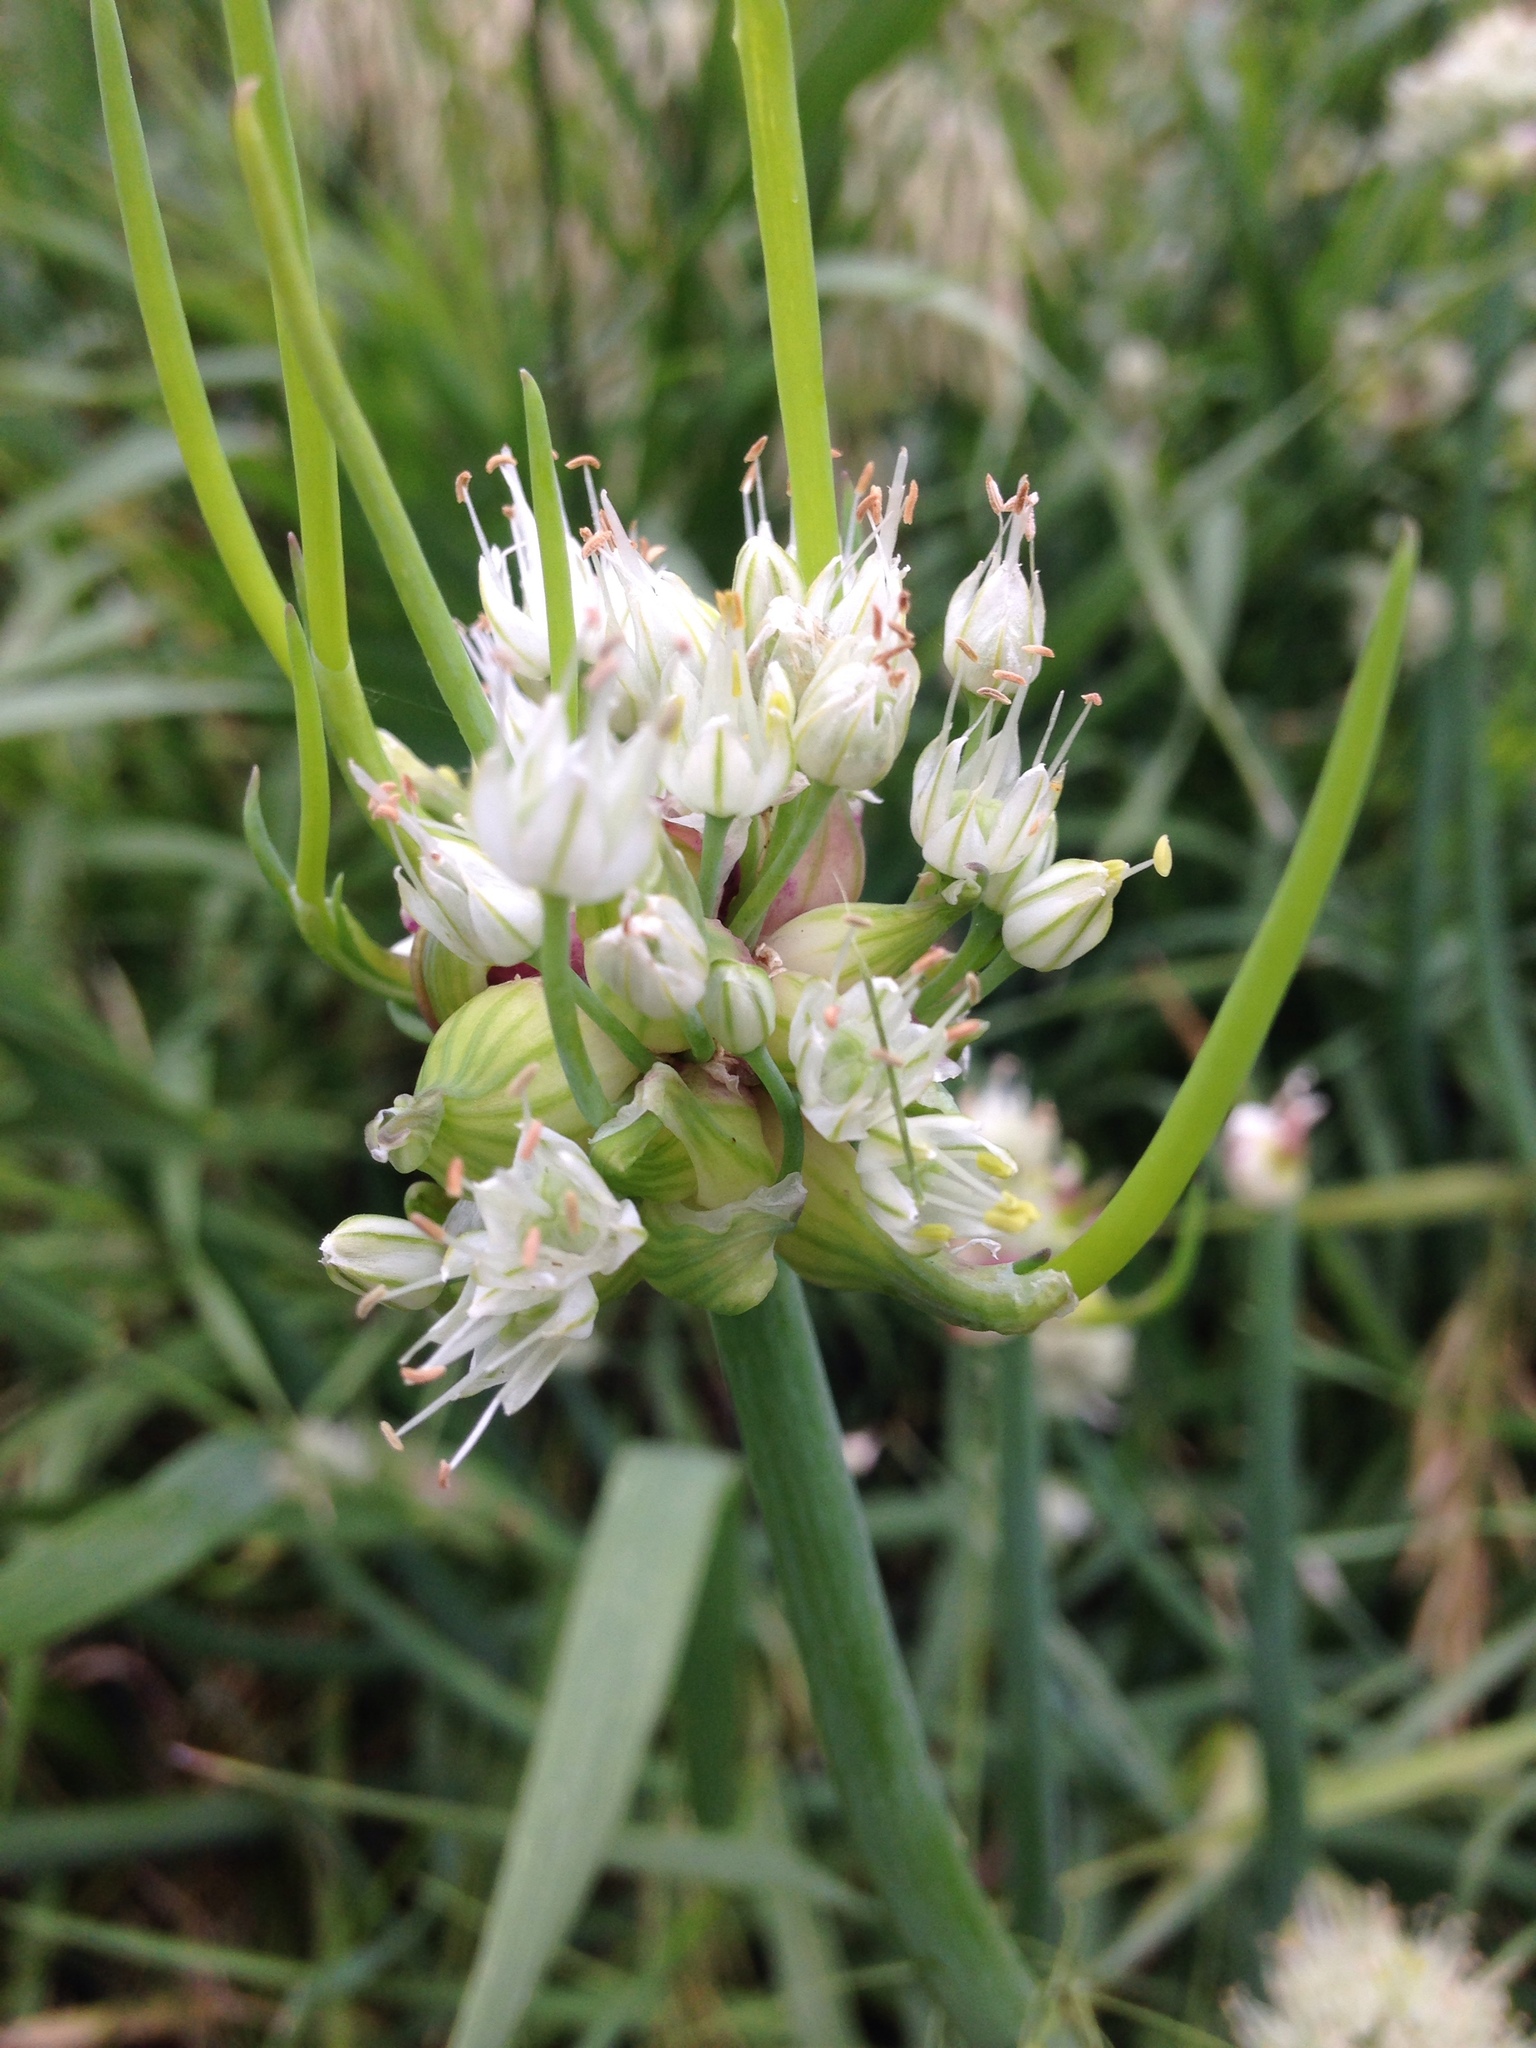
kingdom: Plantae
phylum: Tracheophyta
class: Liliopsida
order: Asparagales
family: Amaryllidaceae
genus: Allium
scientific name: Allium vineale
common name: Crow garlic
